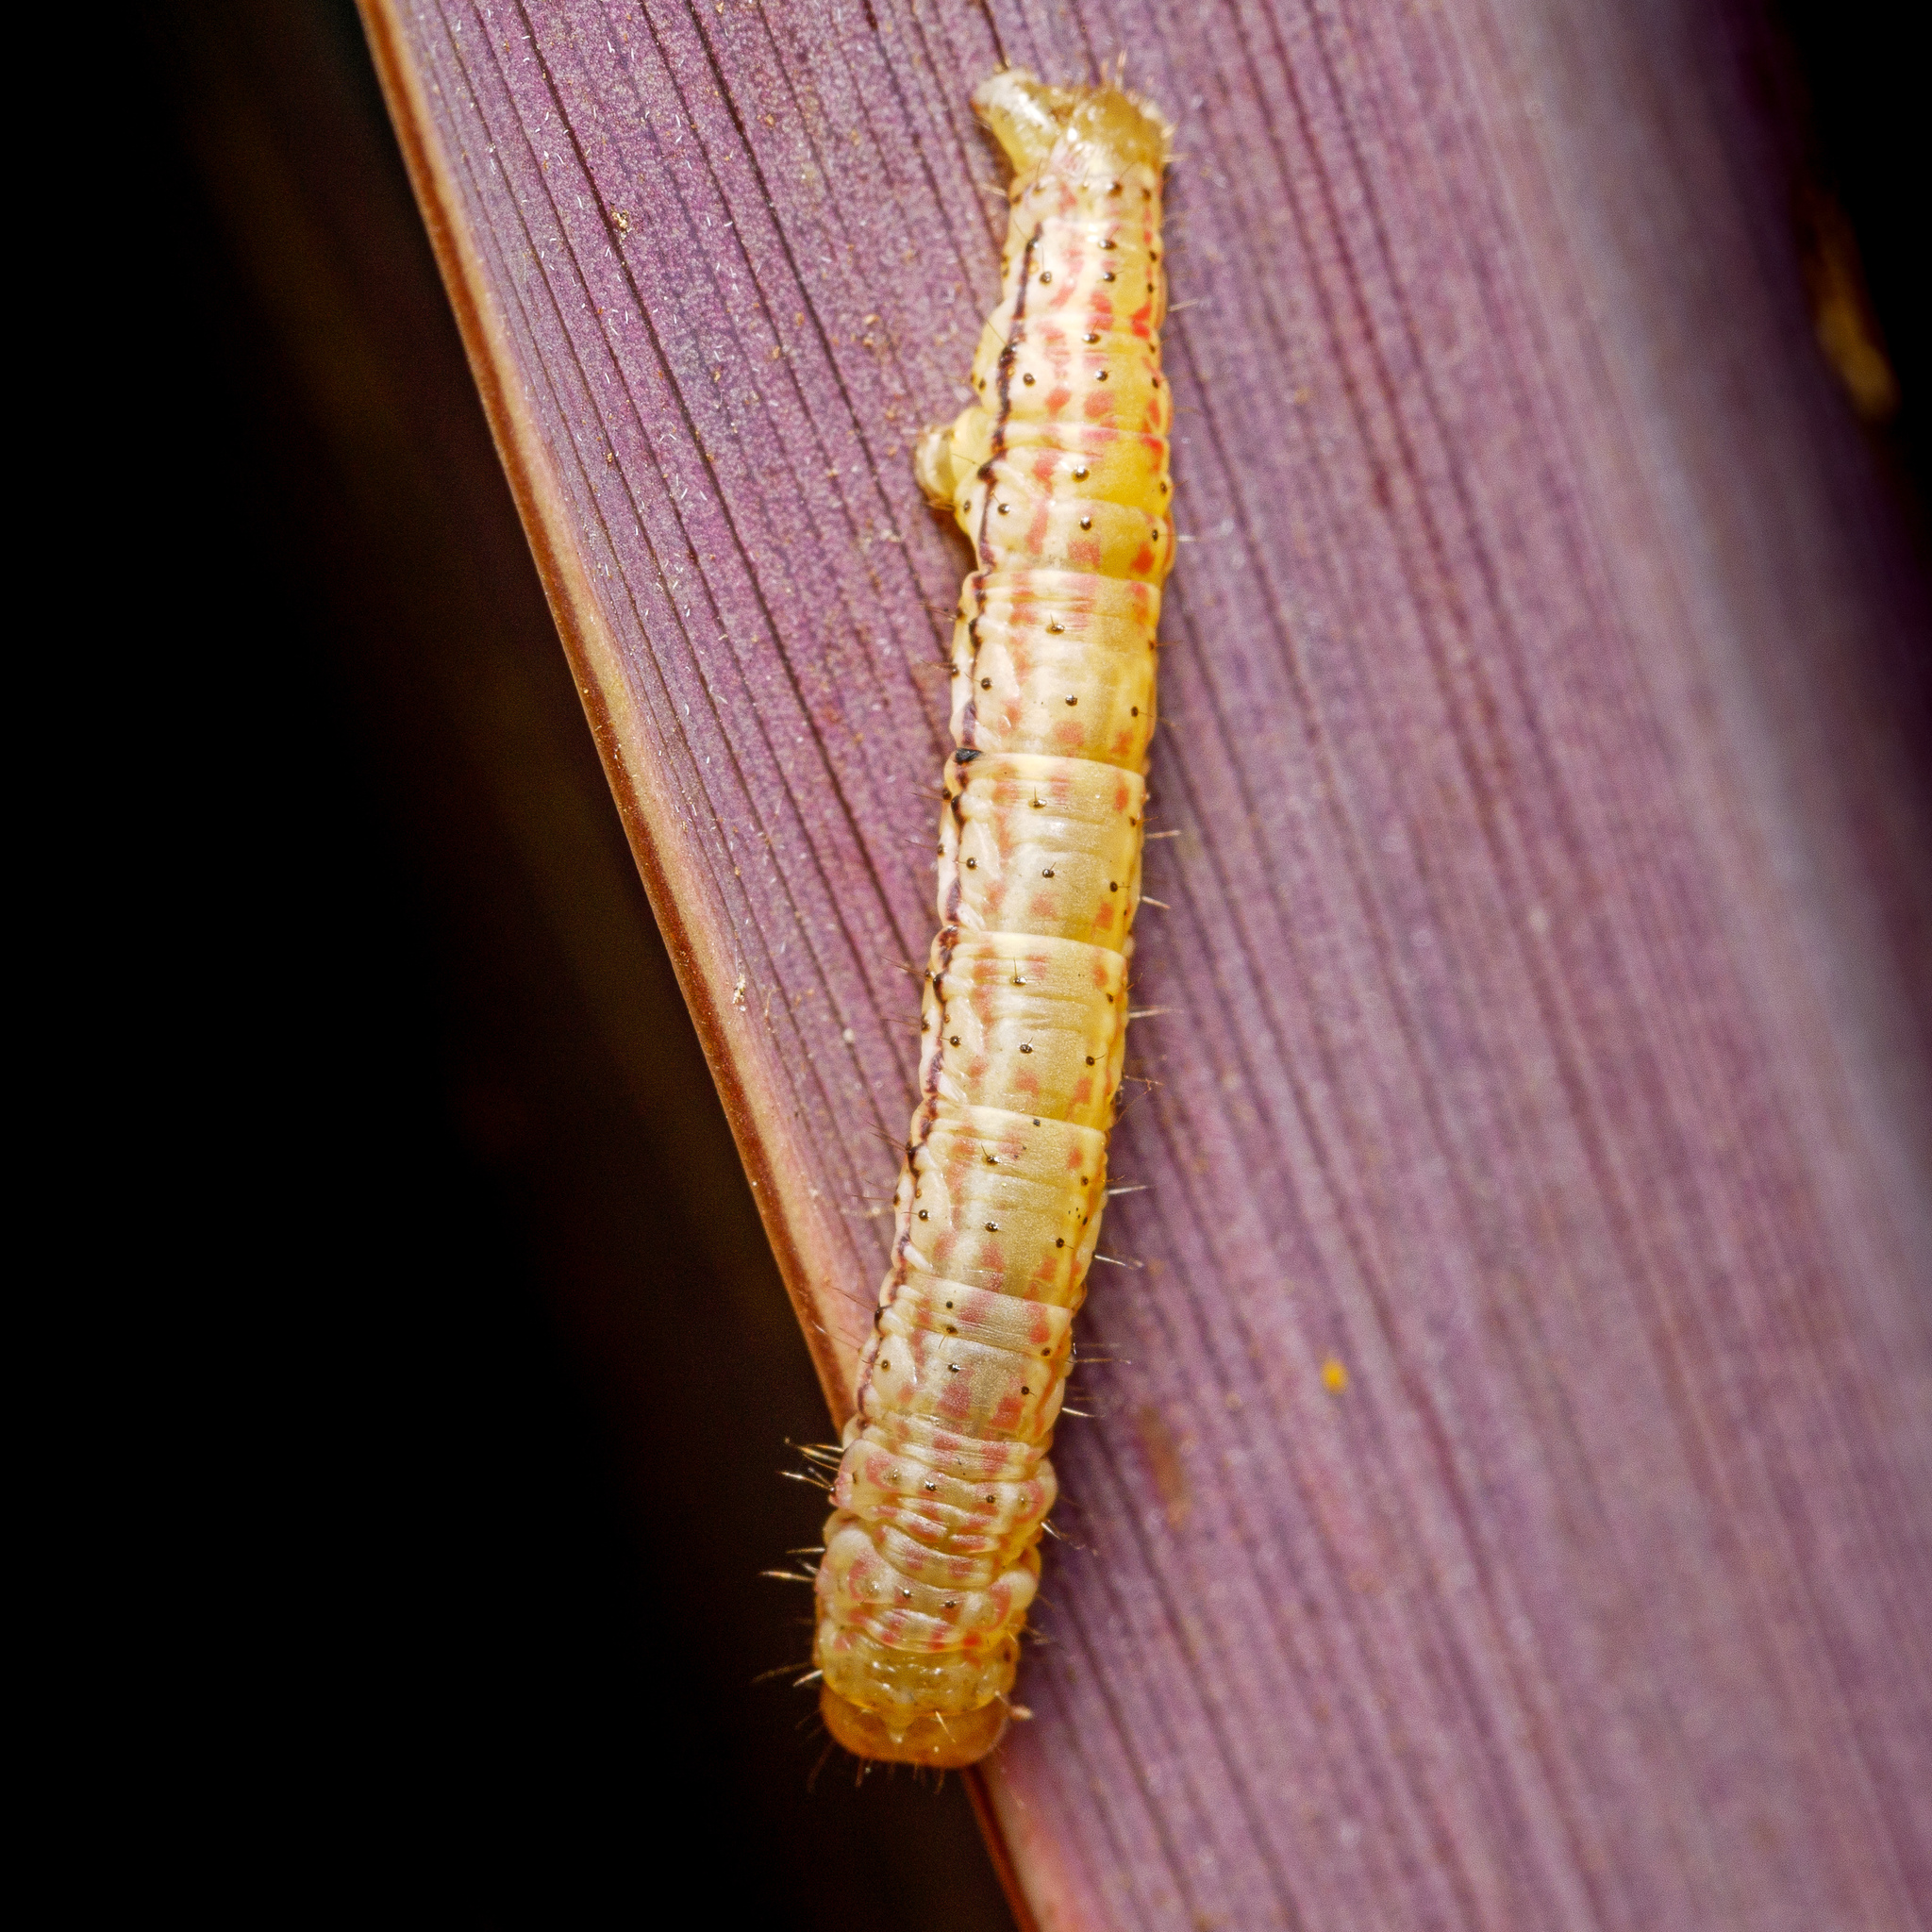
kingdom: Animalia
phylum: Arthropoda
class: Insecta
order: Lepidoptera
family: Geometridae
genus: Epiphryne
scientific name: Epiphryne verriculata
